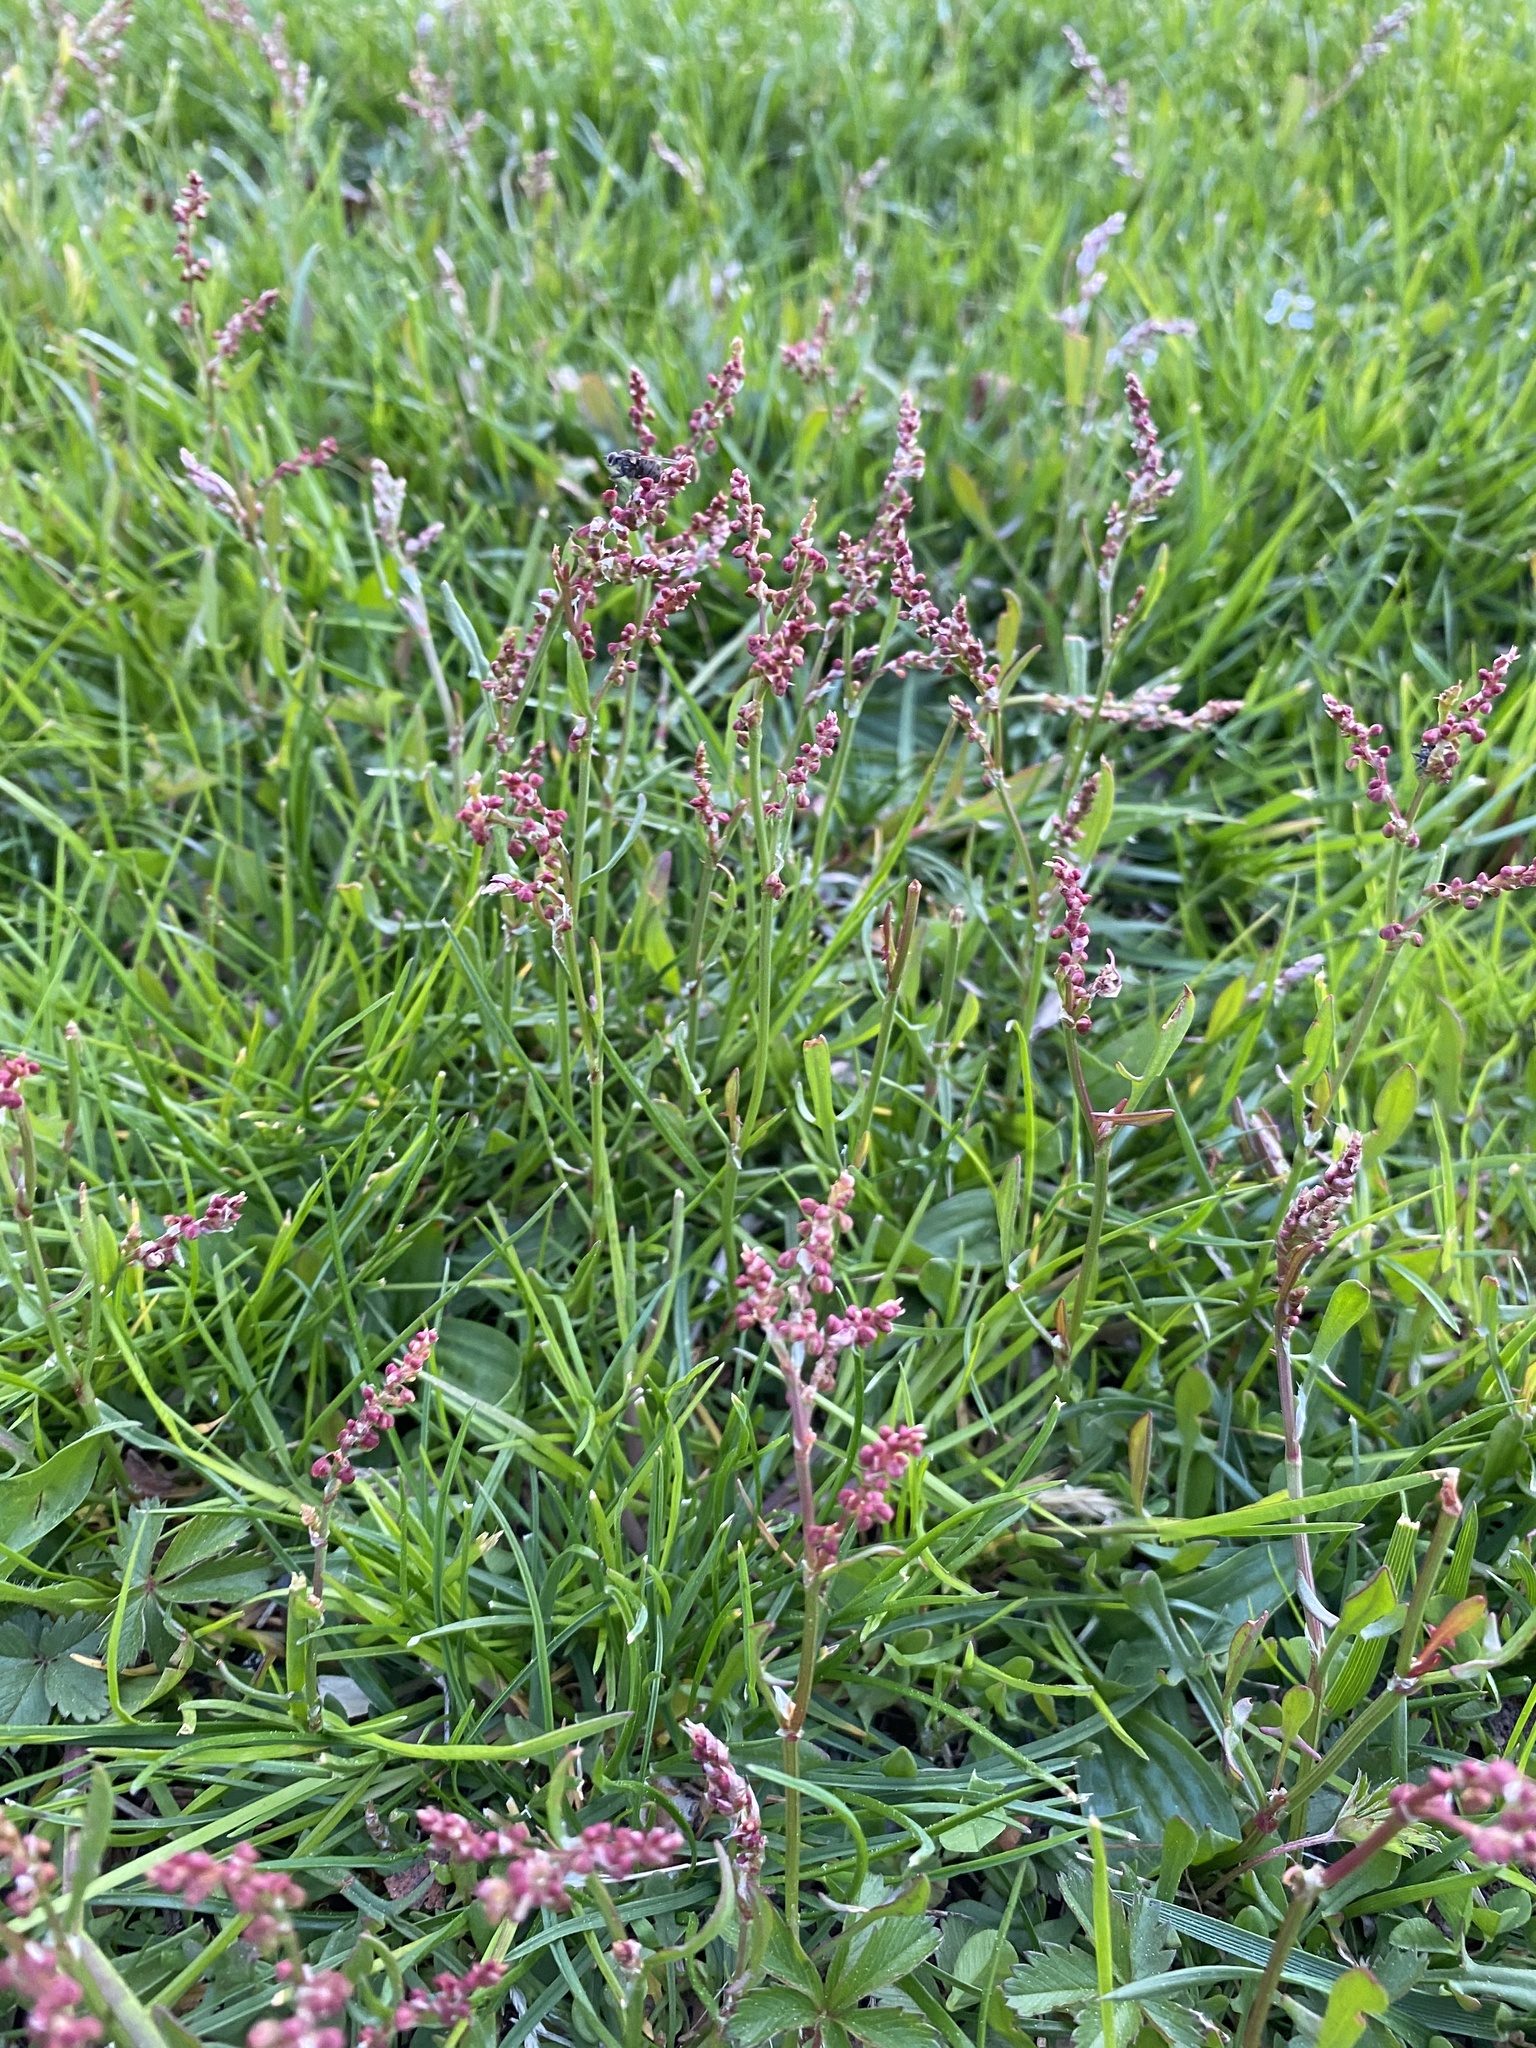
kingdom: Plantae
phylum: Tracheophyta
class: Magnoliopsida
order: Caryophyllales
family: Polygonaceae
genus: Rumex
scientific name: Rumex acetosella
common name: Common sheep sorrel
